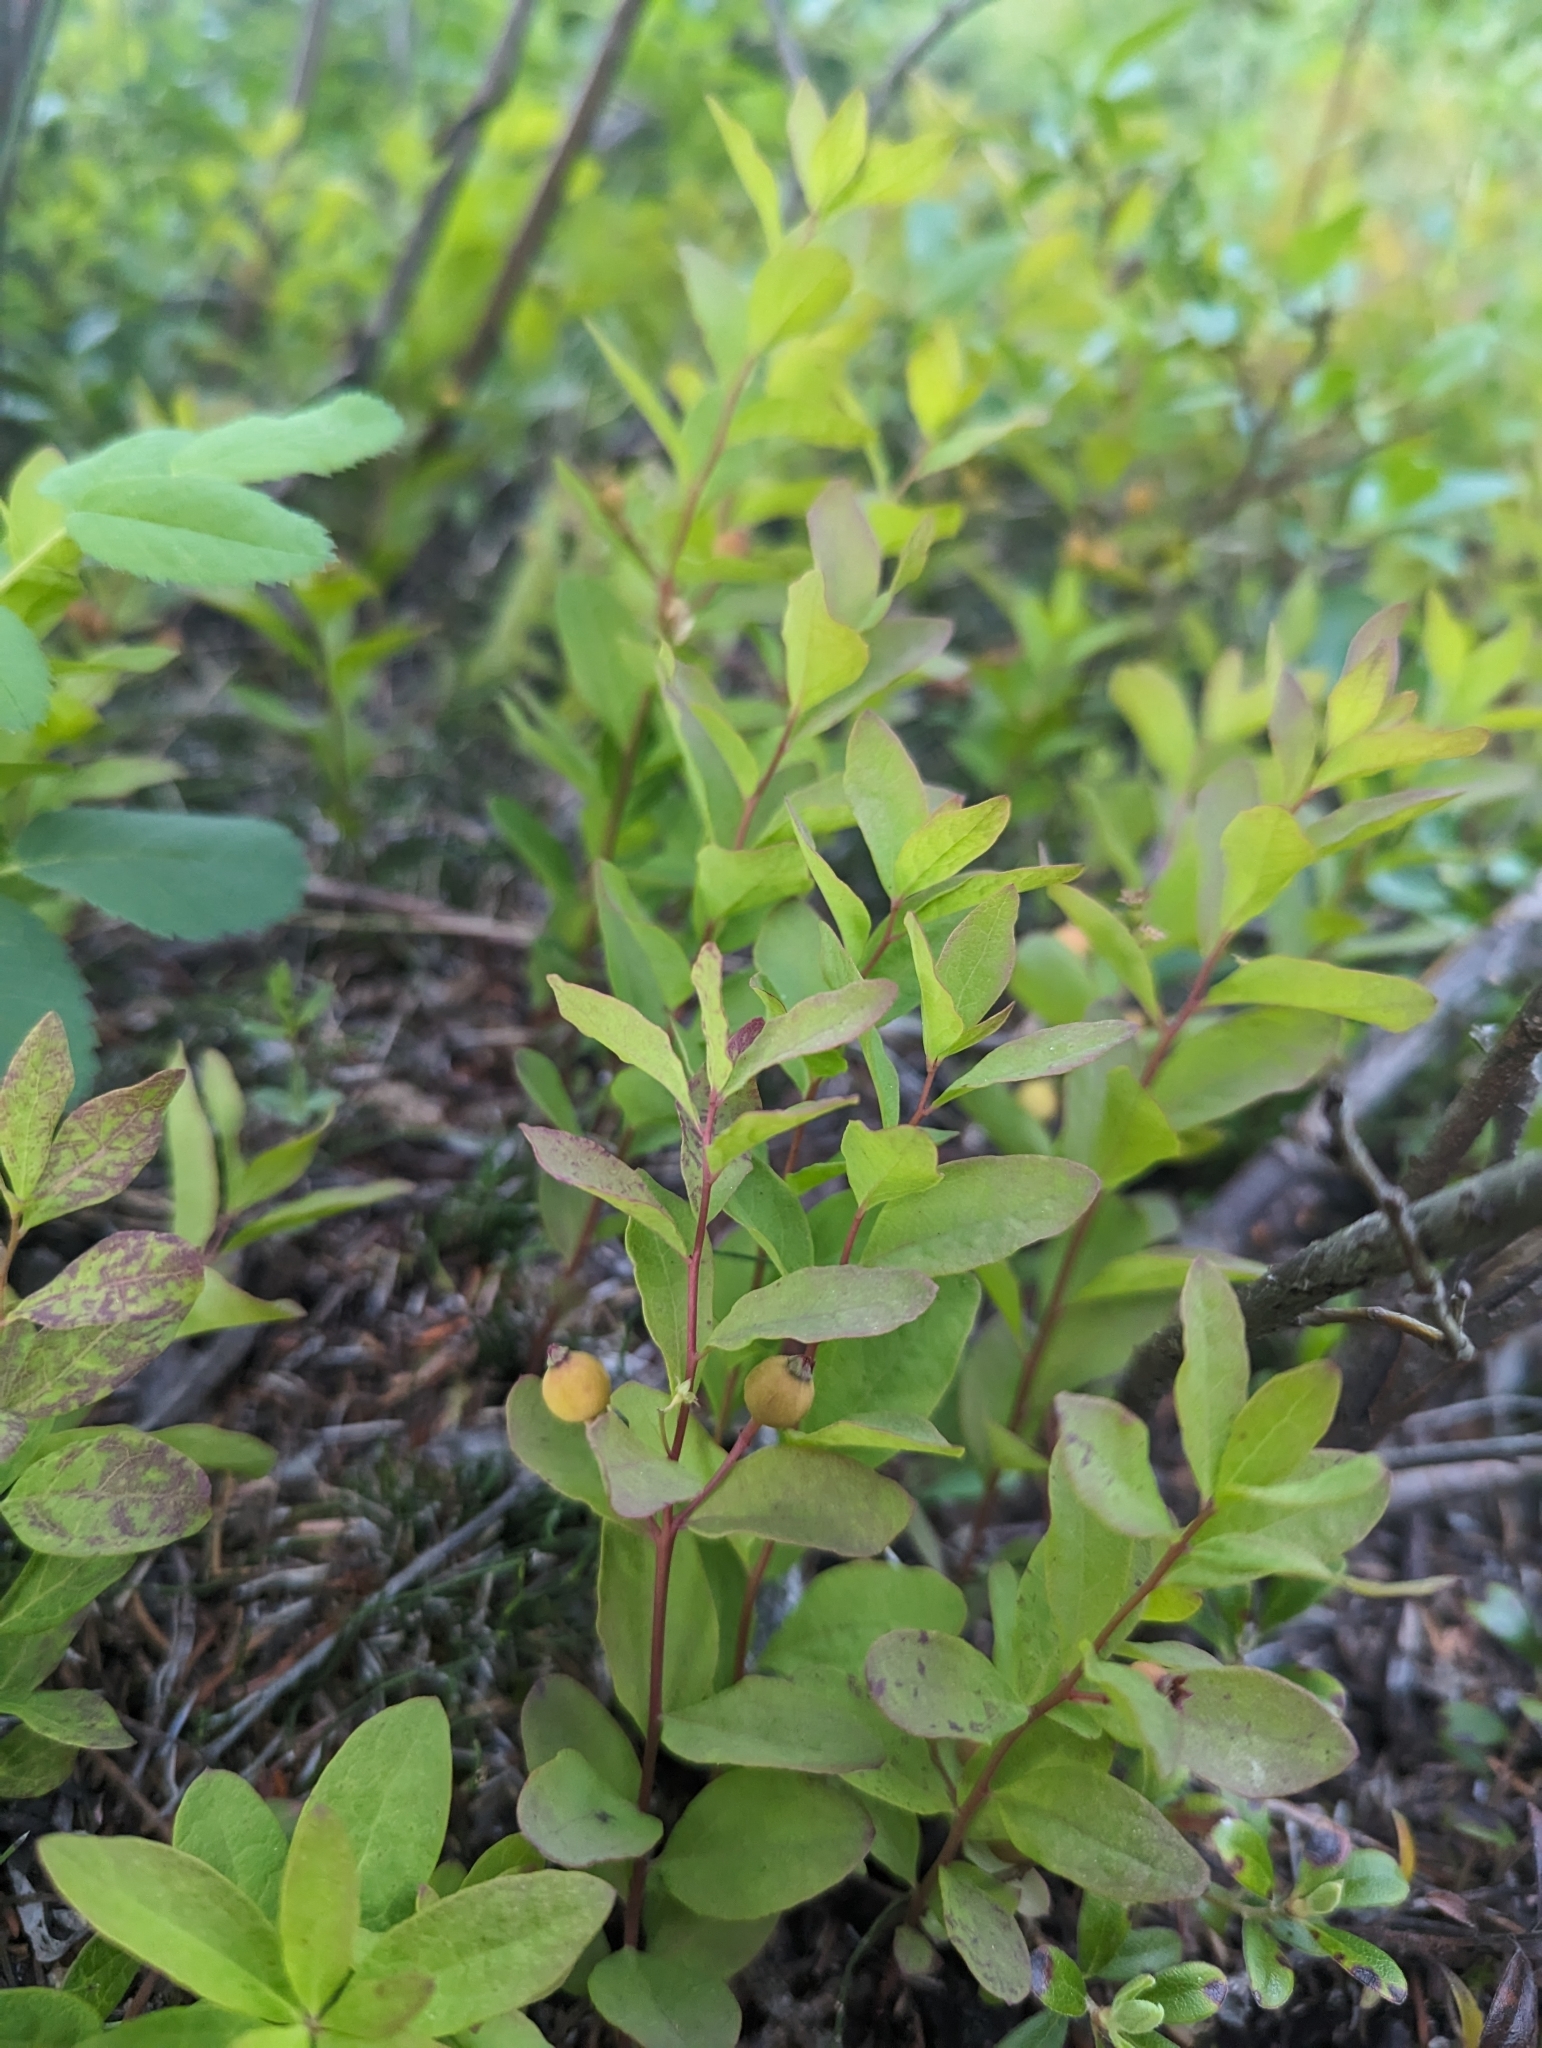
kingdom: Plantae
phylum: Tracheophyta
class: Magnoliopsida
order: Santalales
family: Comandraceae
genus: Geocaulon
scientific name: Geocaulon lividum
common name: Earthberry
